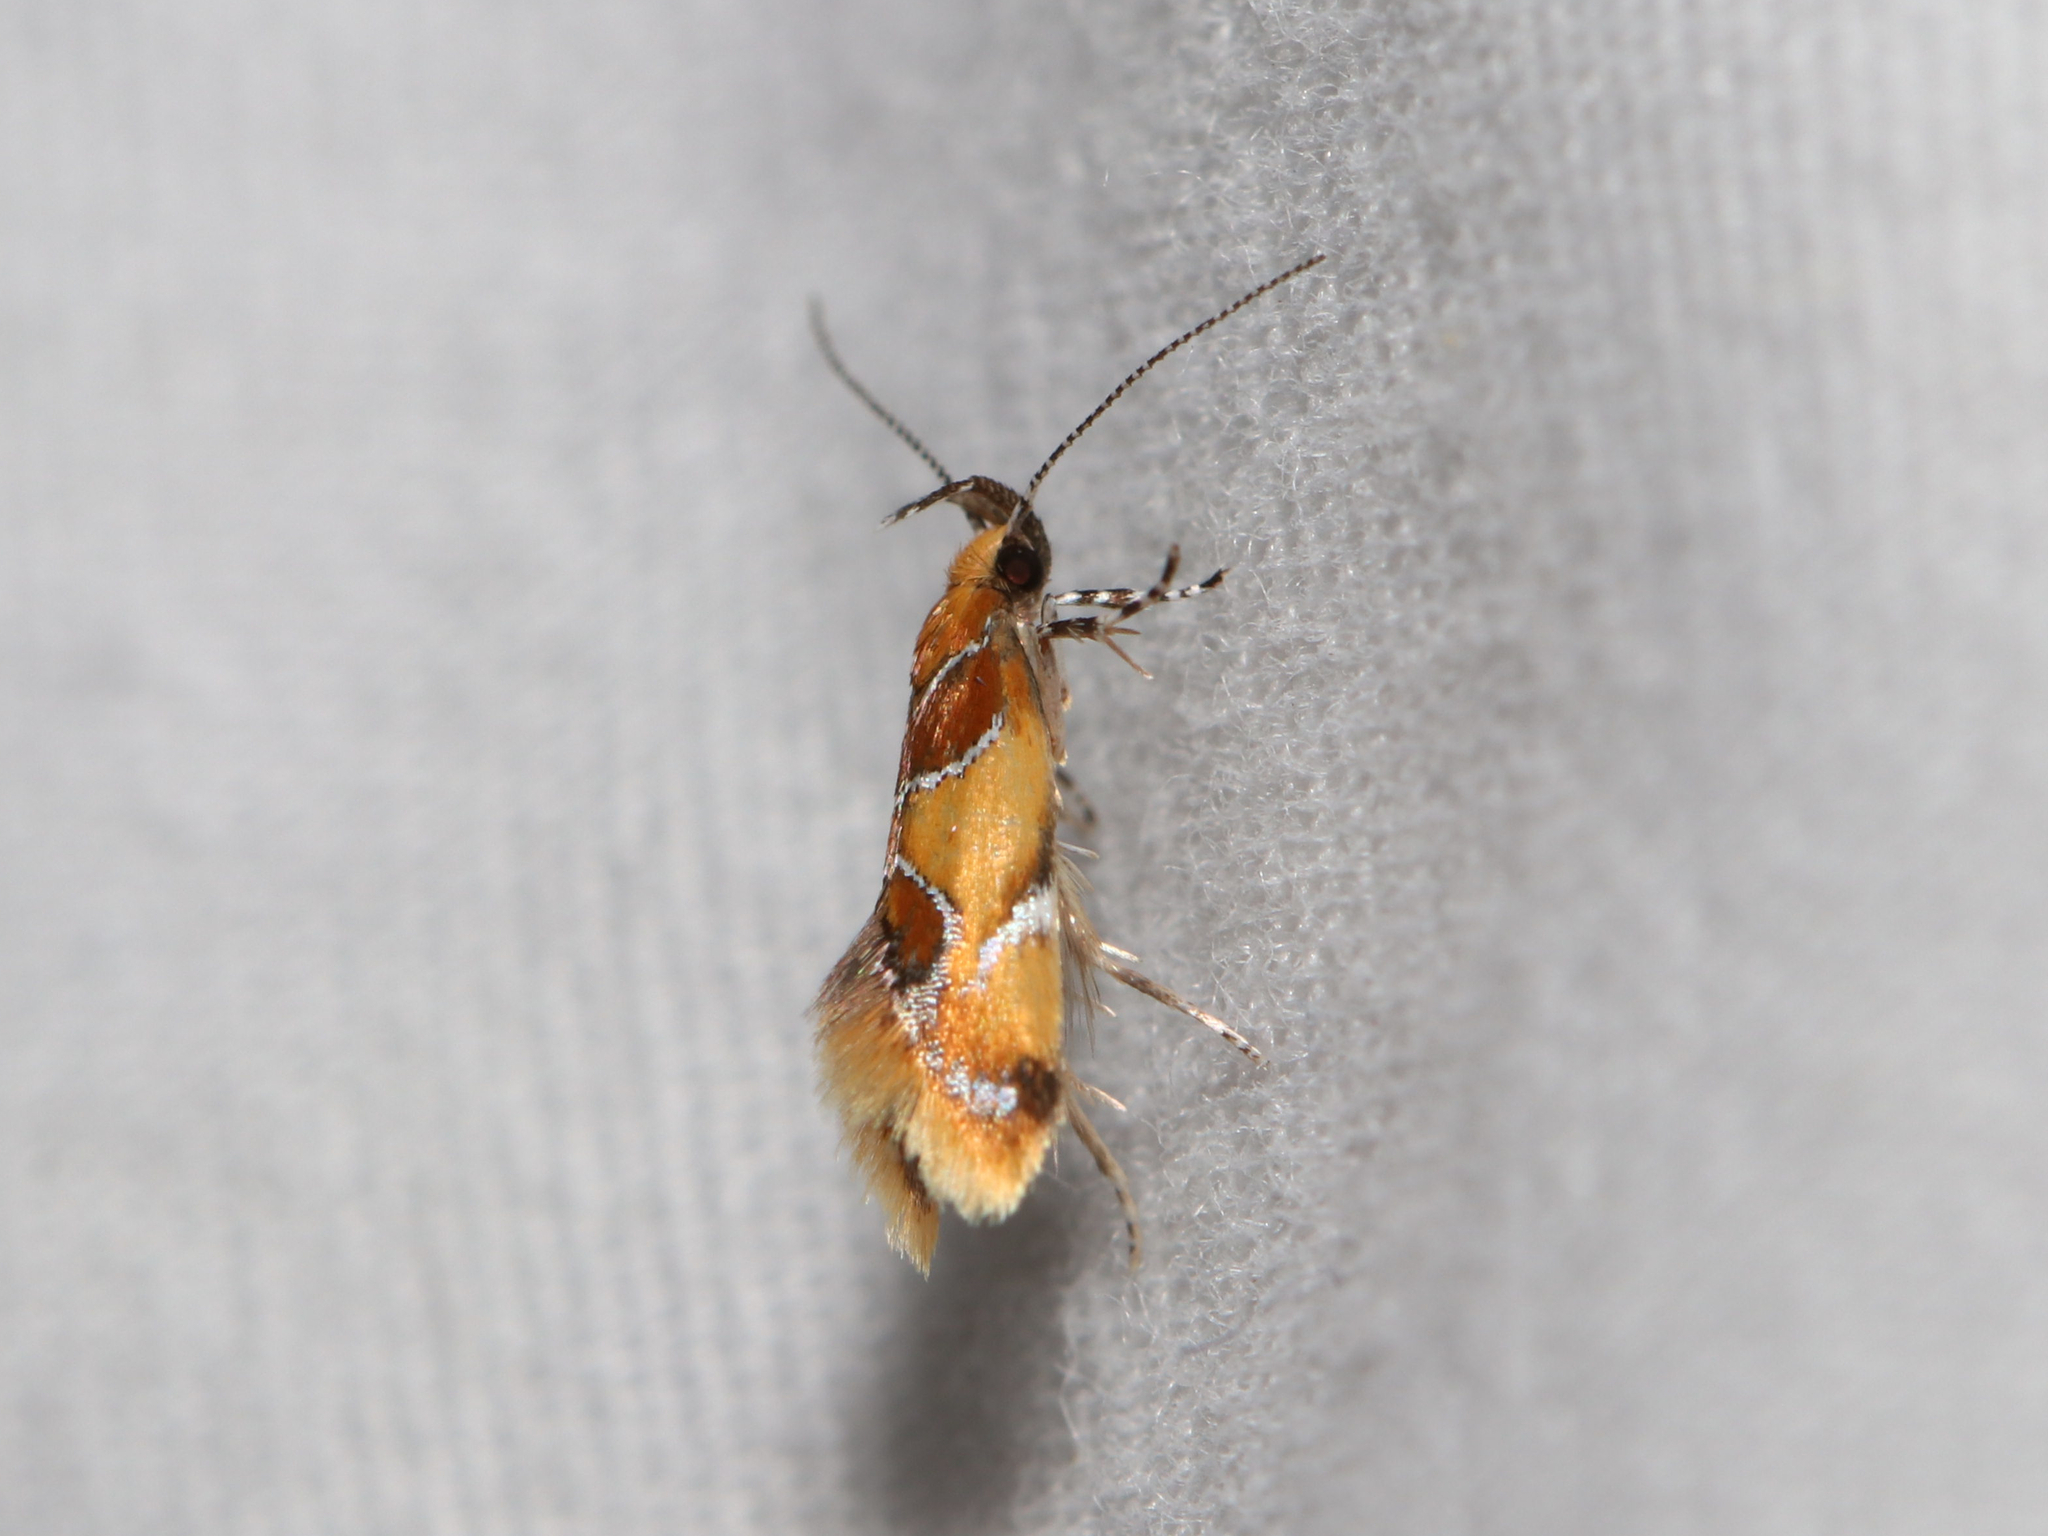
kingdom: Animalia
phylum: Arthropoda
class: Insecta
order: Lepidoptera
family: Oecophoridae
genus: Callima
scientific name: Callima argenticinctella
